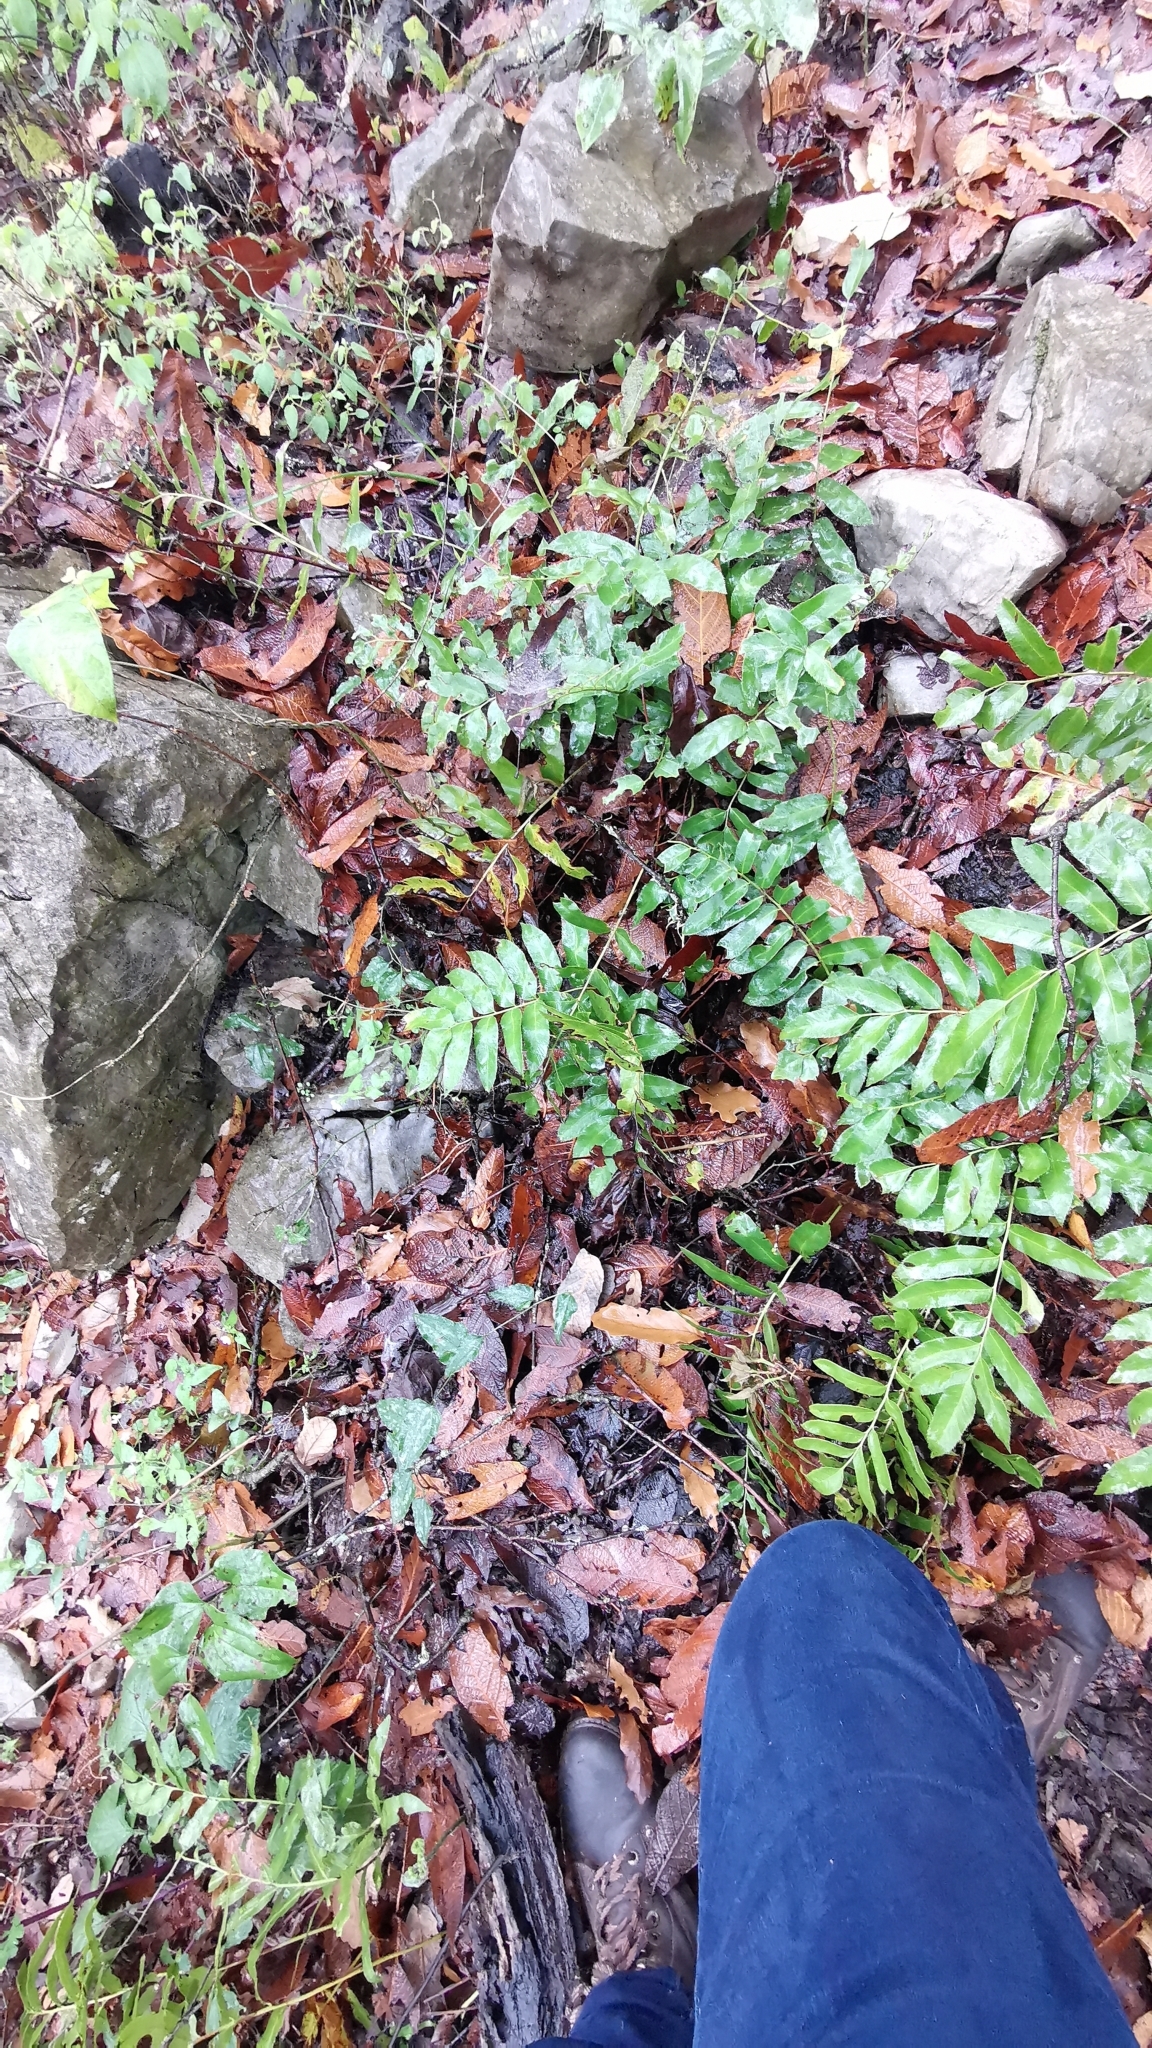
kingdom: Plantae
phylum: Tracheophyta
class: Polypodiopsida
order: Polypodiales
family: Dryopteridaceae
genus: Phanerophlebia
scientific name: Phanerophlebia umbonata
